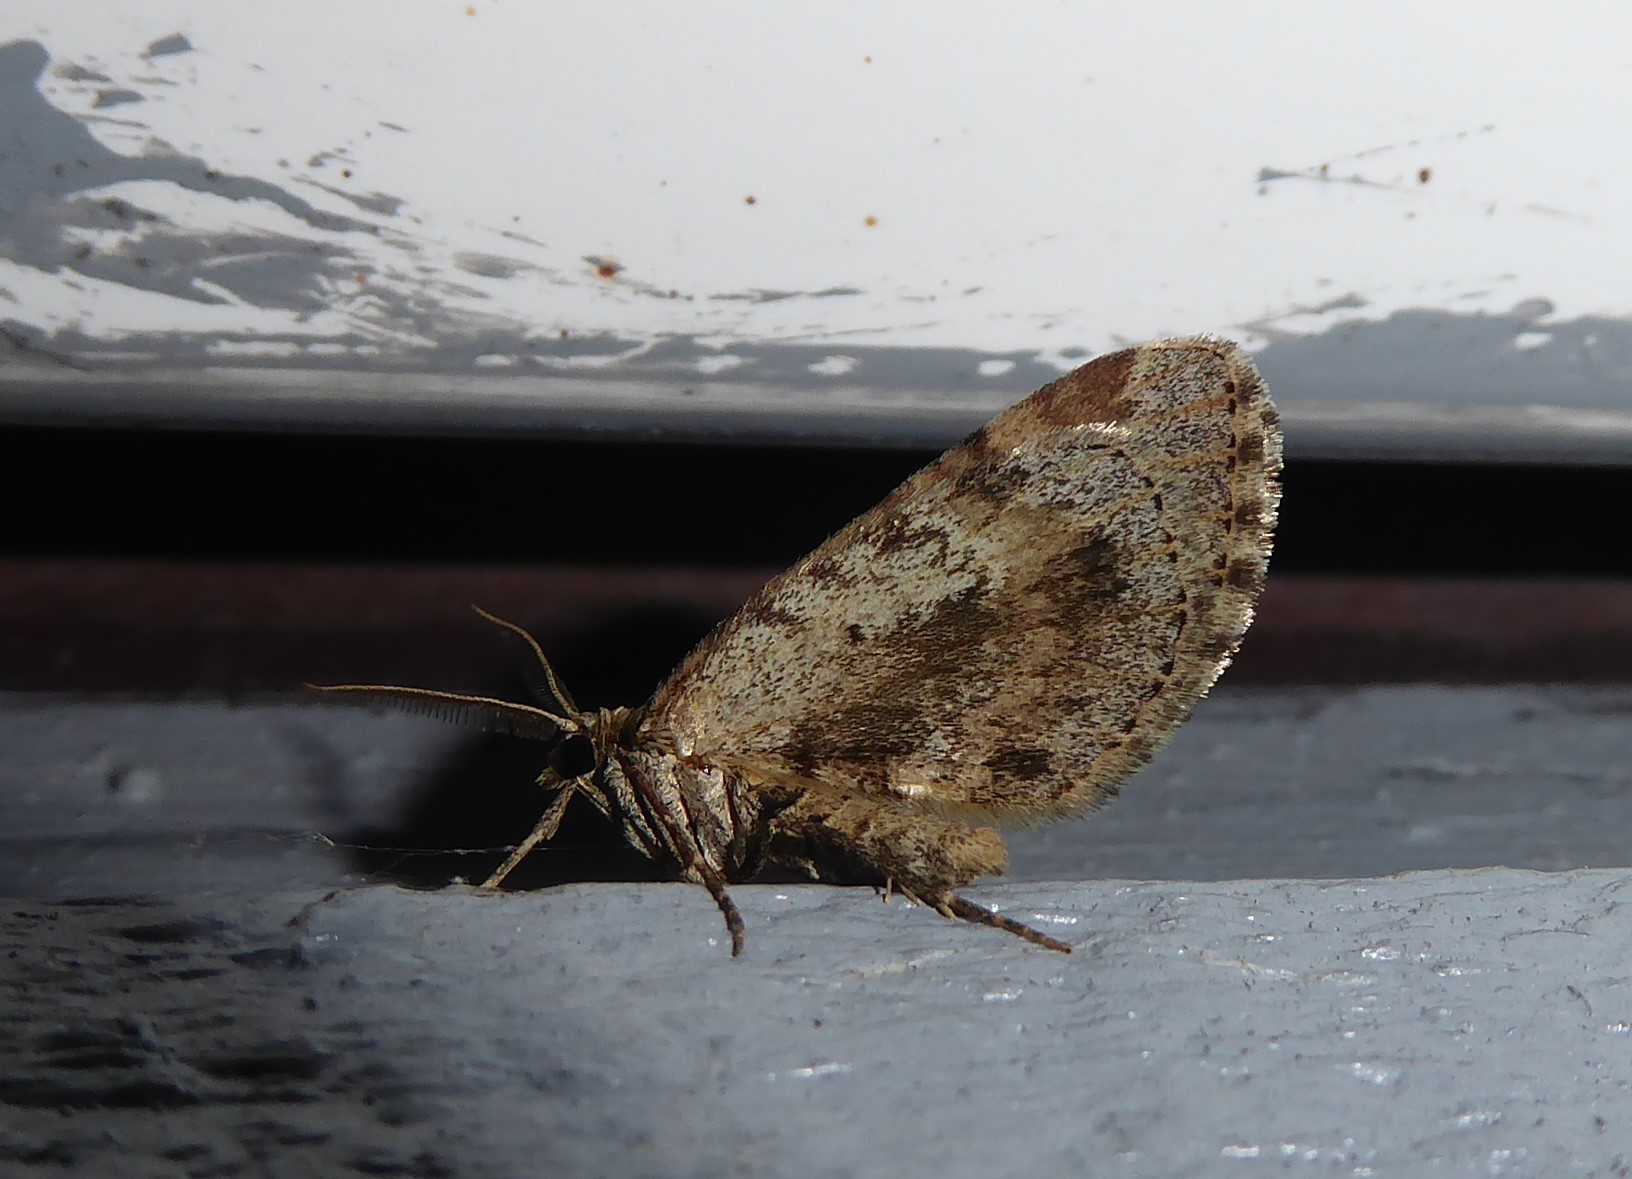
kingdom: Animalia
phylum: Arthropoda
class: Insecta
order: Lepidoptera
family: Geometridae
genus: Asaphodes
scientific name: Asaphodes aegrota
